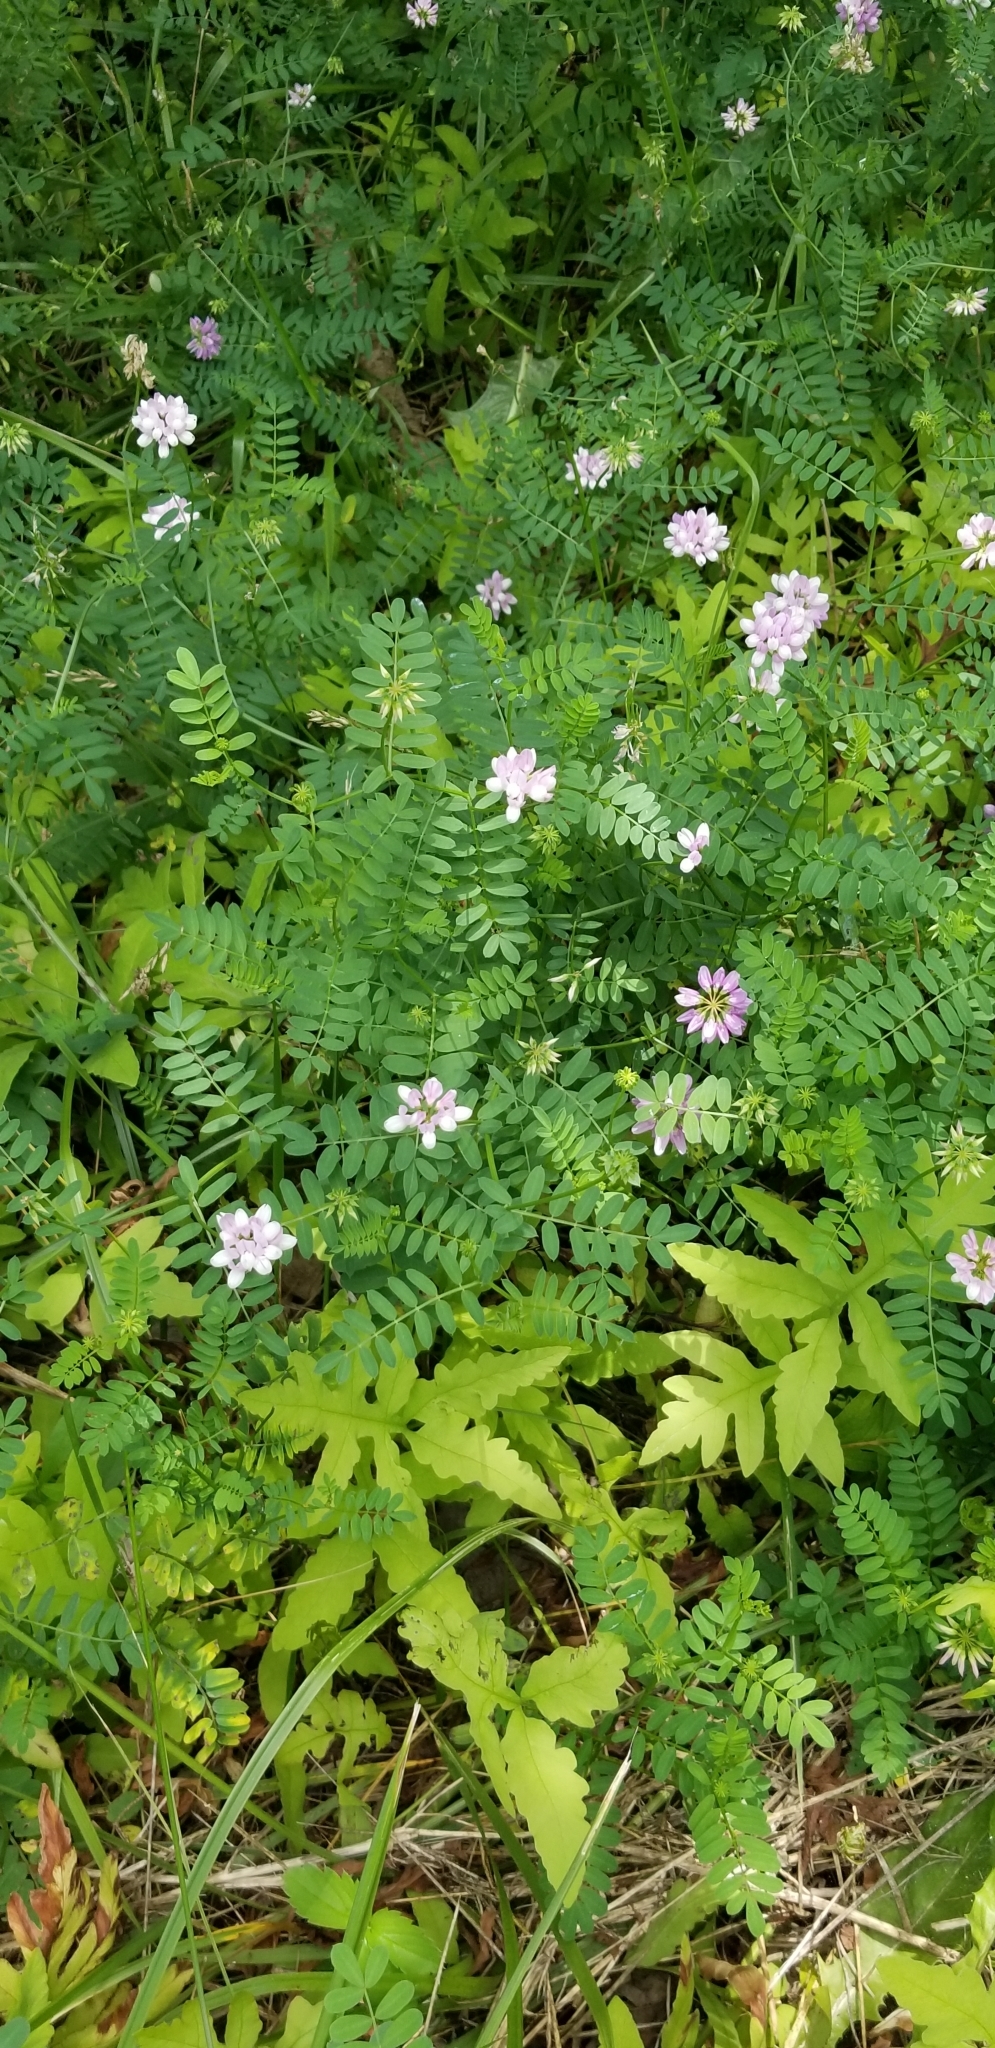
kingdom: Plantae
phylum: Tracheophyta
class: Magnoliopsida
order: Fabales
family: Fabaceae
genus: Coronilla
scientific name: Coronilla varia
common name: Crownvetch
